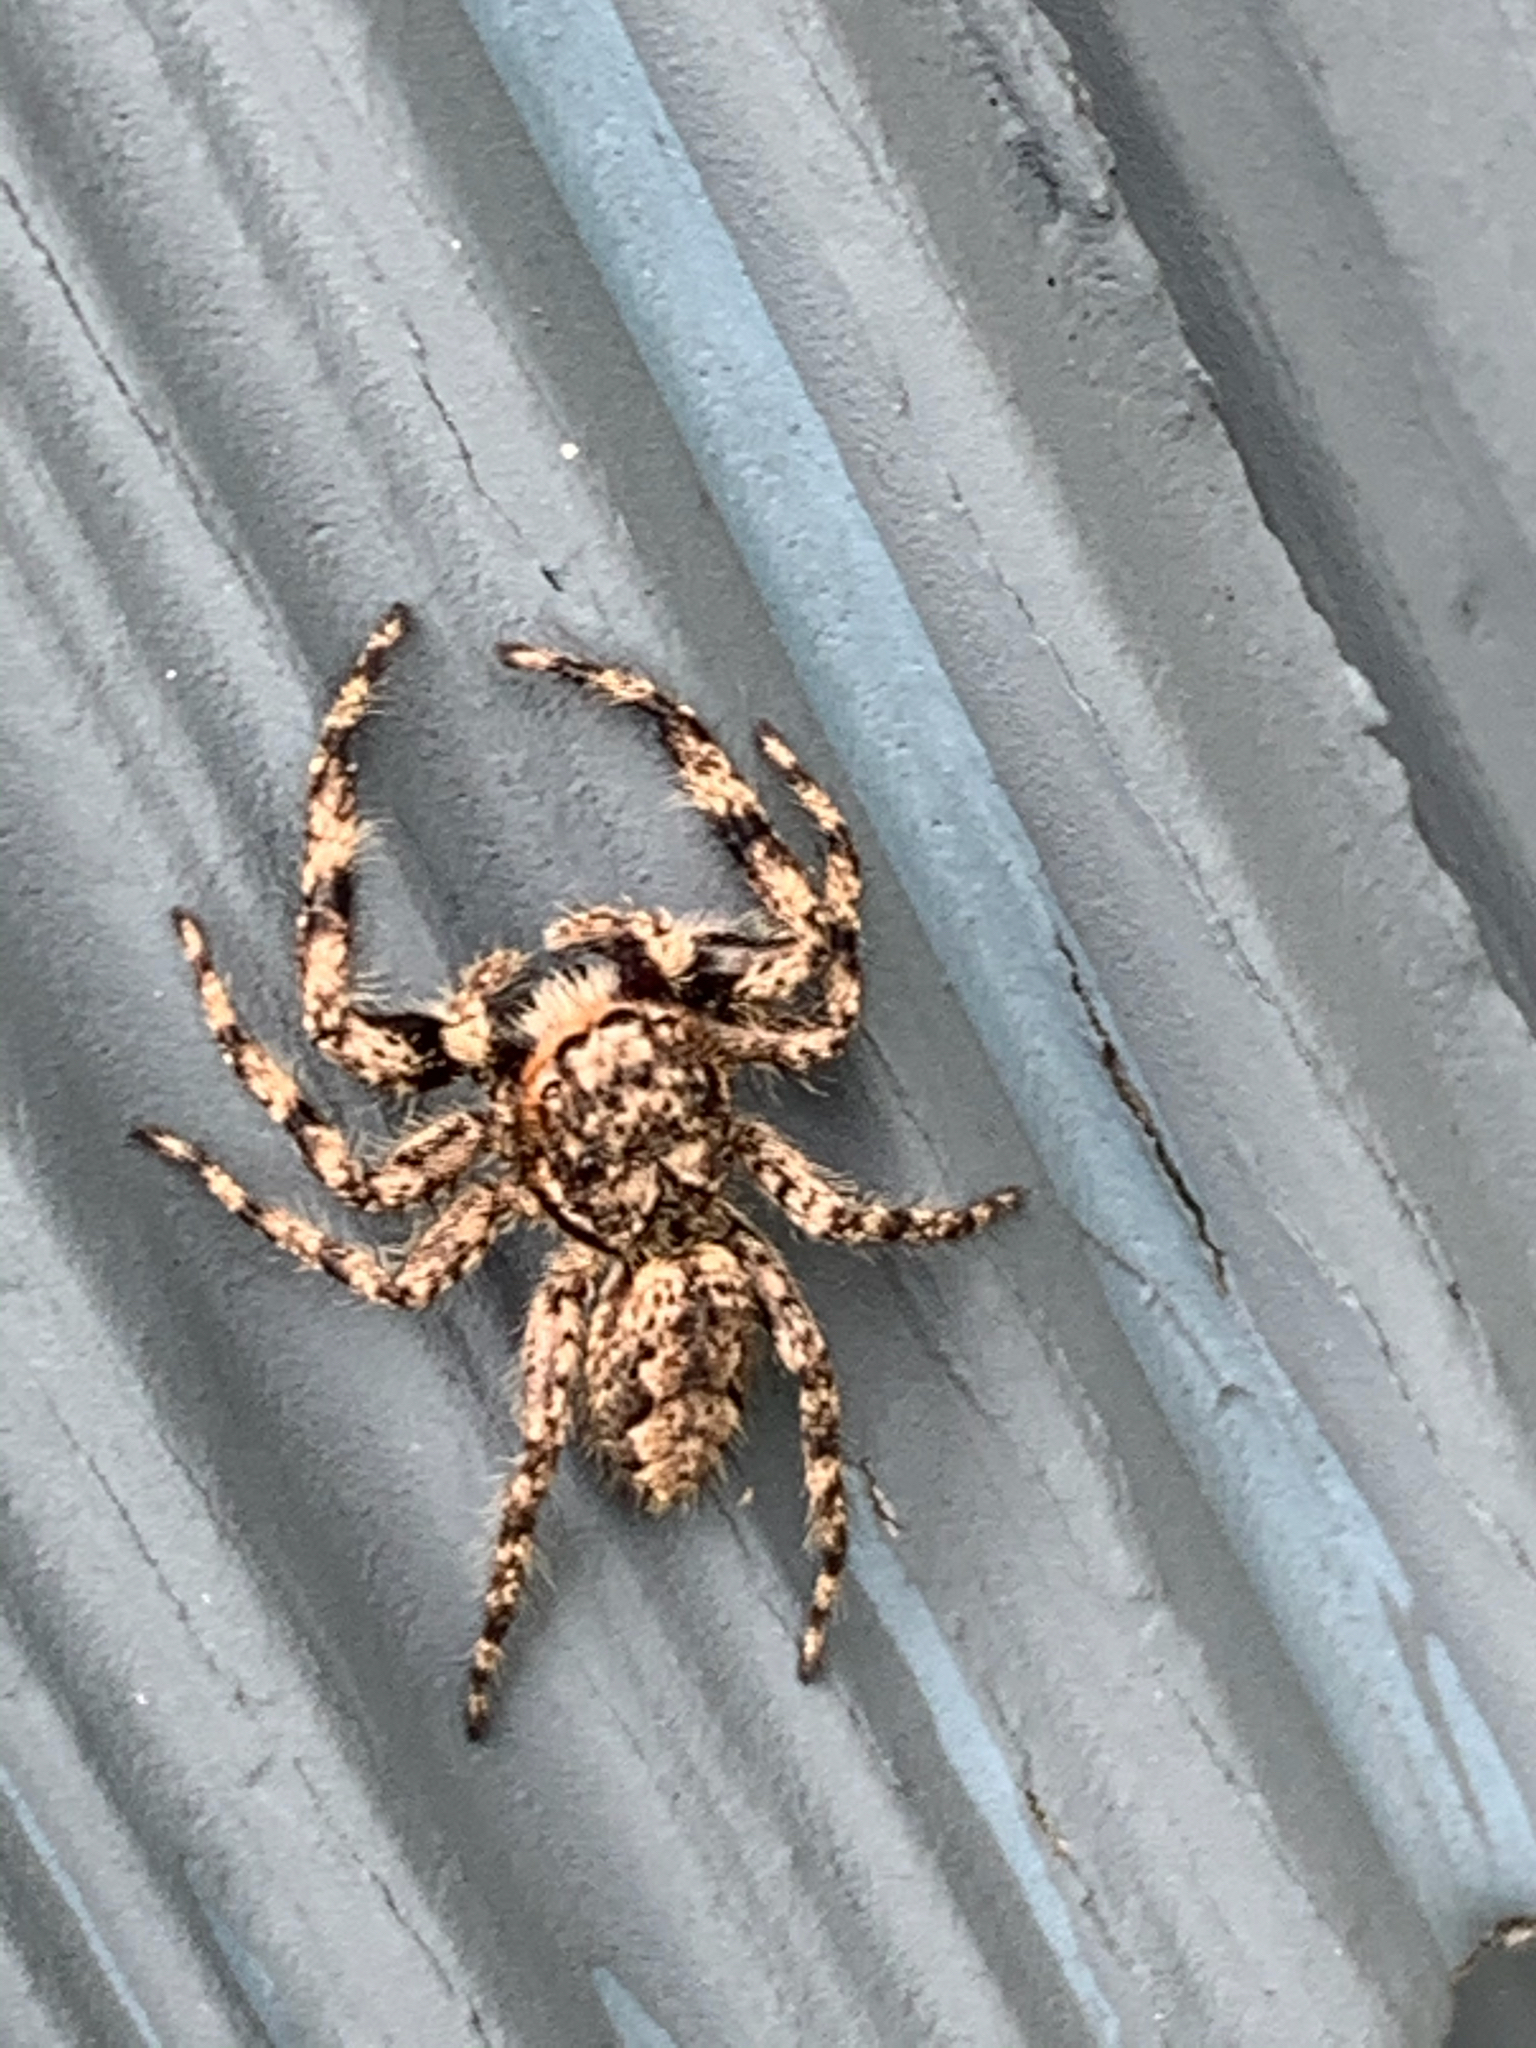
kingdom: Animalia
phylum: Arthropoda
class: Arachnida
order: Araneae
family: Salticidae
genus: Platycryptus
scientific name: Platycryptus undatus
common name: Tan jumping spider
